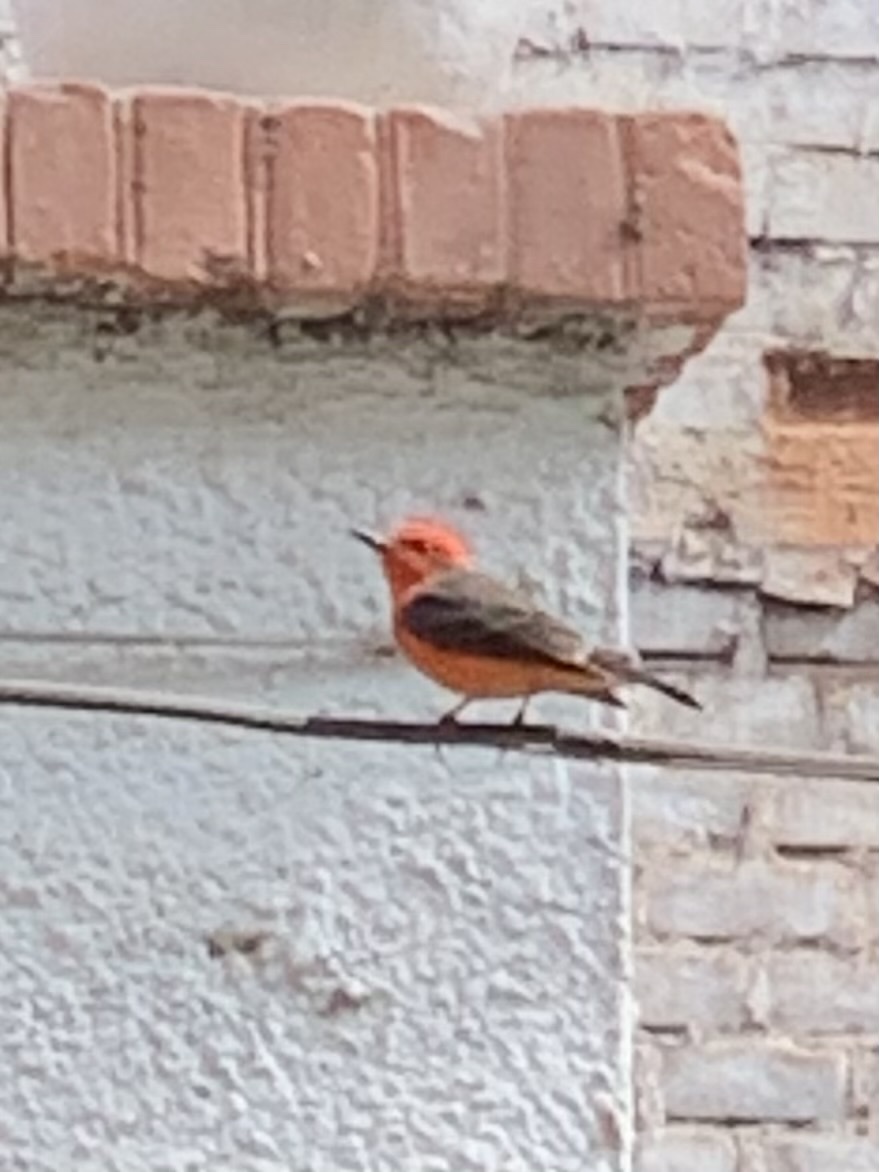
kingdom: Animalia
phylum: Chordata
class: Aves
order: Passeriformes
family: Tyrannidae
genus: Pyrocephalus
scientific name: Pyrocephalus rubinus
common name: Vermilion flycatcher
